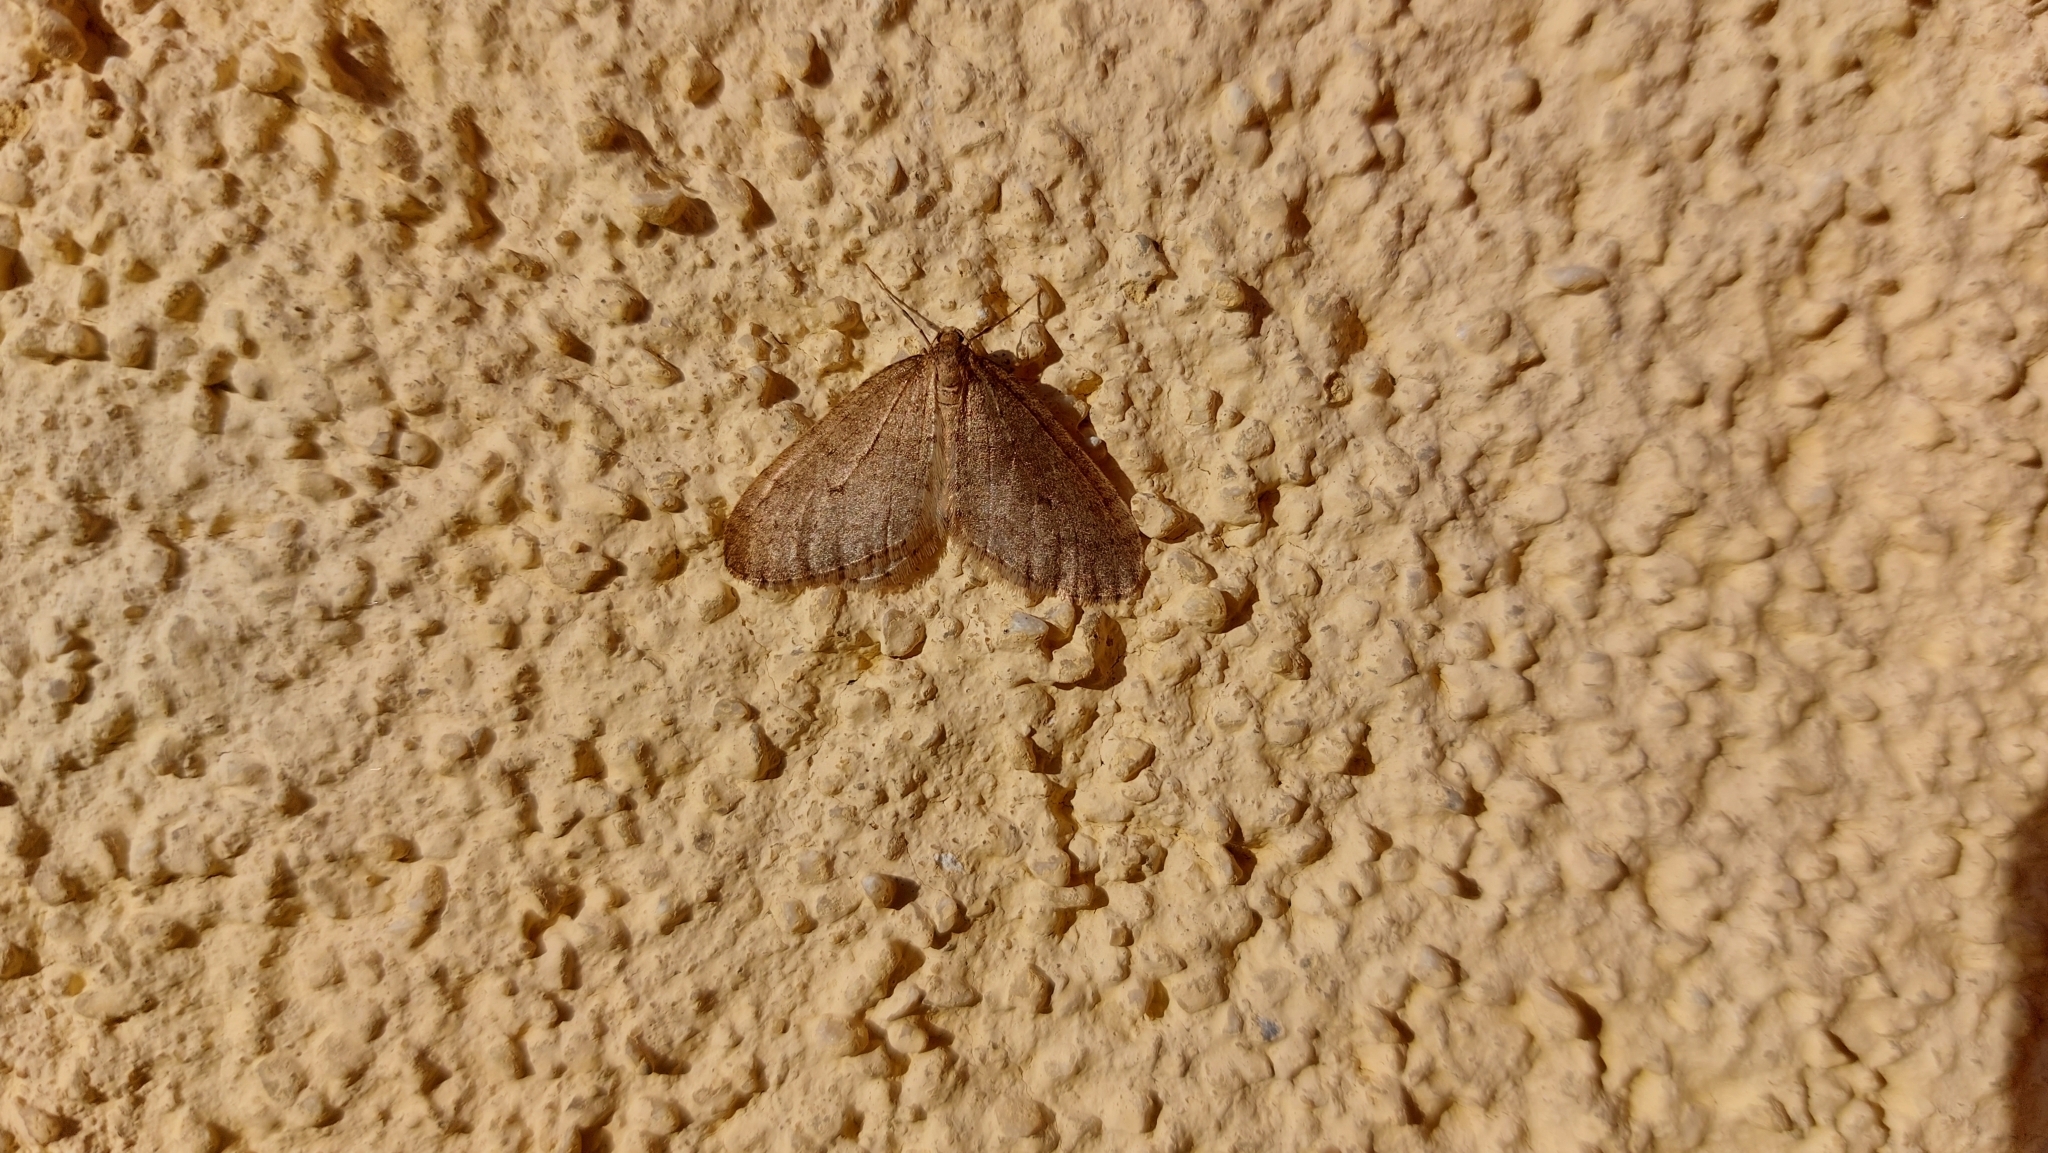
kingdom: Animalia
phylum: Arthropoda
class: Insecta
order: Lepidoptera
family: Geometridae
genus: Operophtera
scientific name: Operophtera brumata
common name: Winter moth
